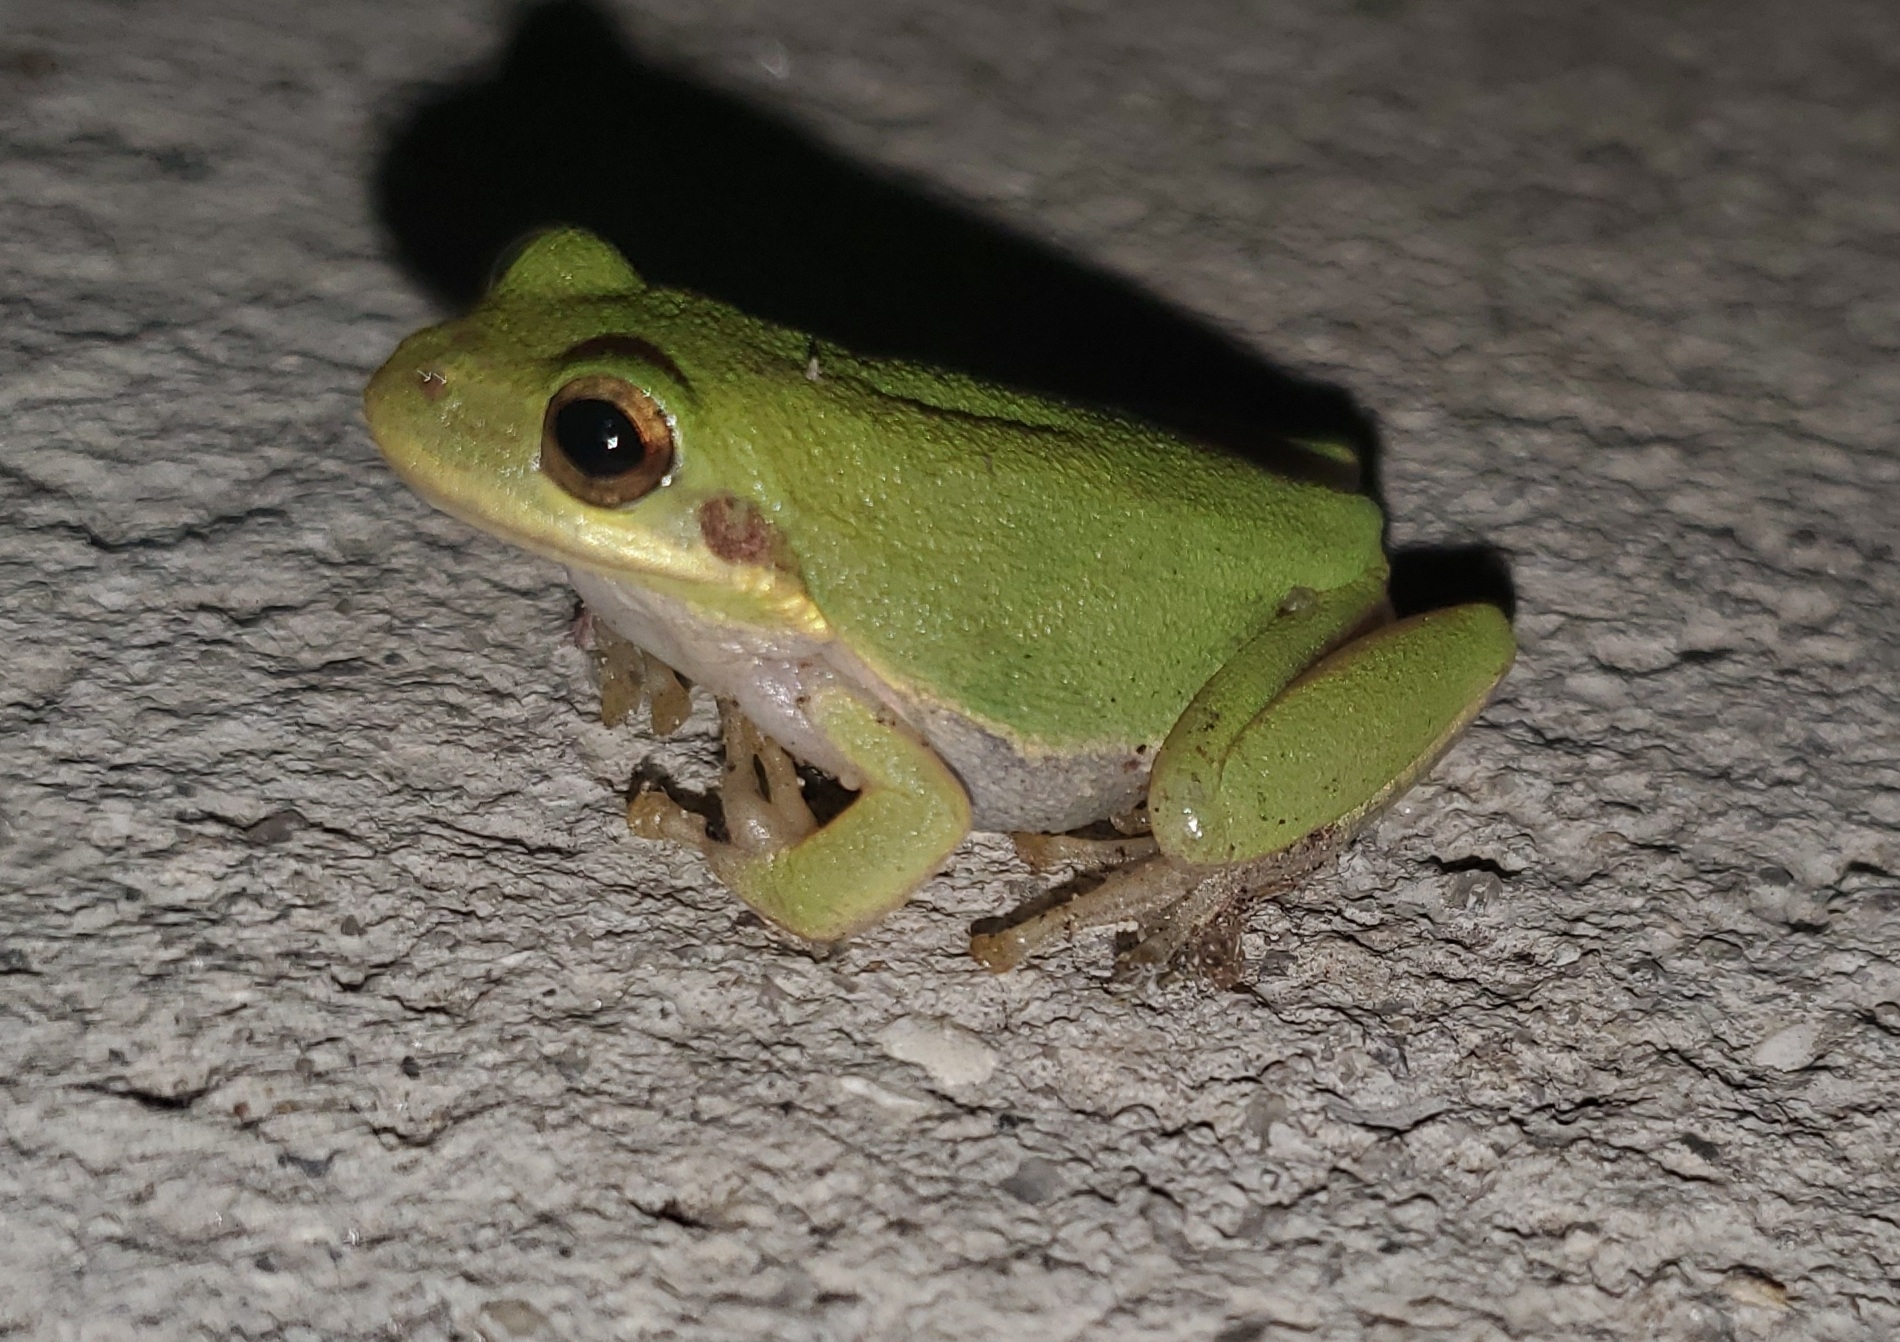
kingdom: Animalia
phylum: Chordata
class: Amphibia
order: Anura
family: Hylidae
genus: Dryophytes
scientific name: Dryophytes squirellus
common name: Squirrel treefrog
